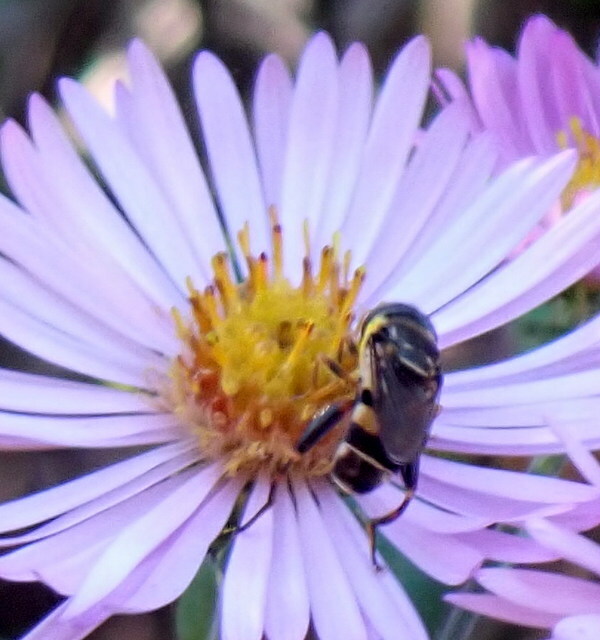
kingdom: Animalia
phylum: Arthropoda
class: Insecta
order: Diptera
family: Syrphidae
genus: Tropidia
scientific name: Tropidia albistylum
